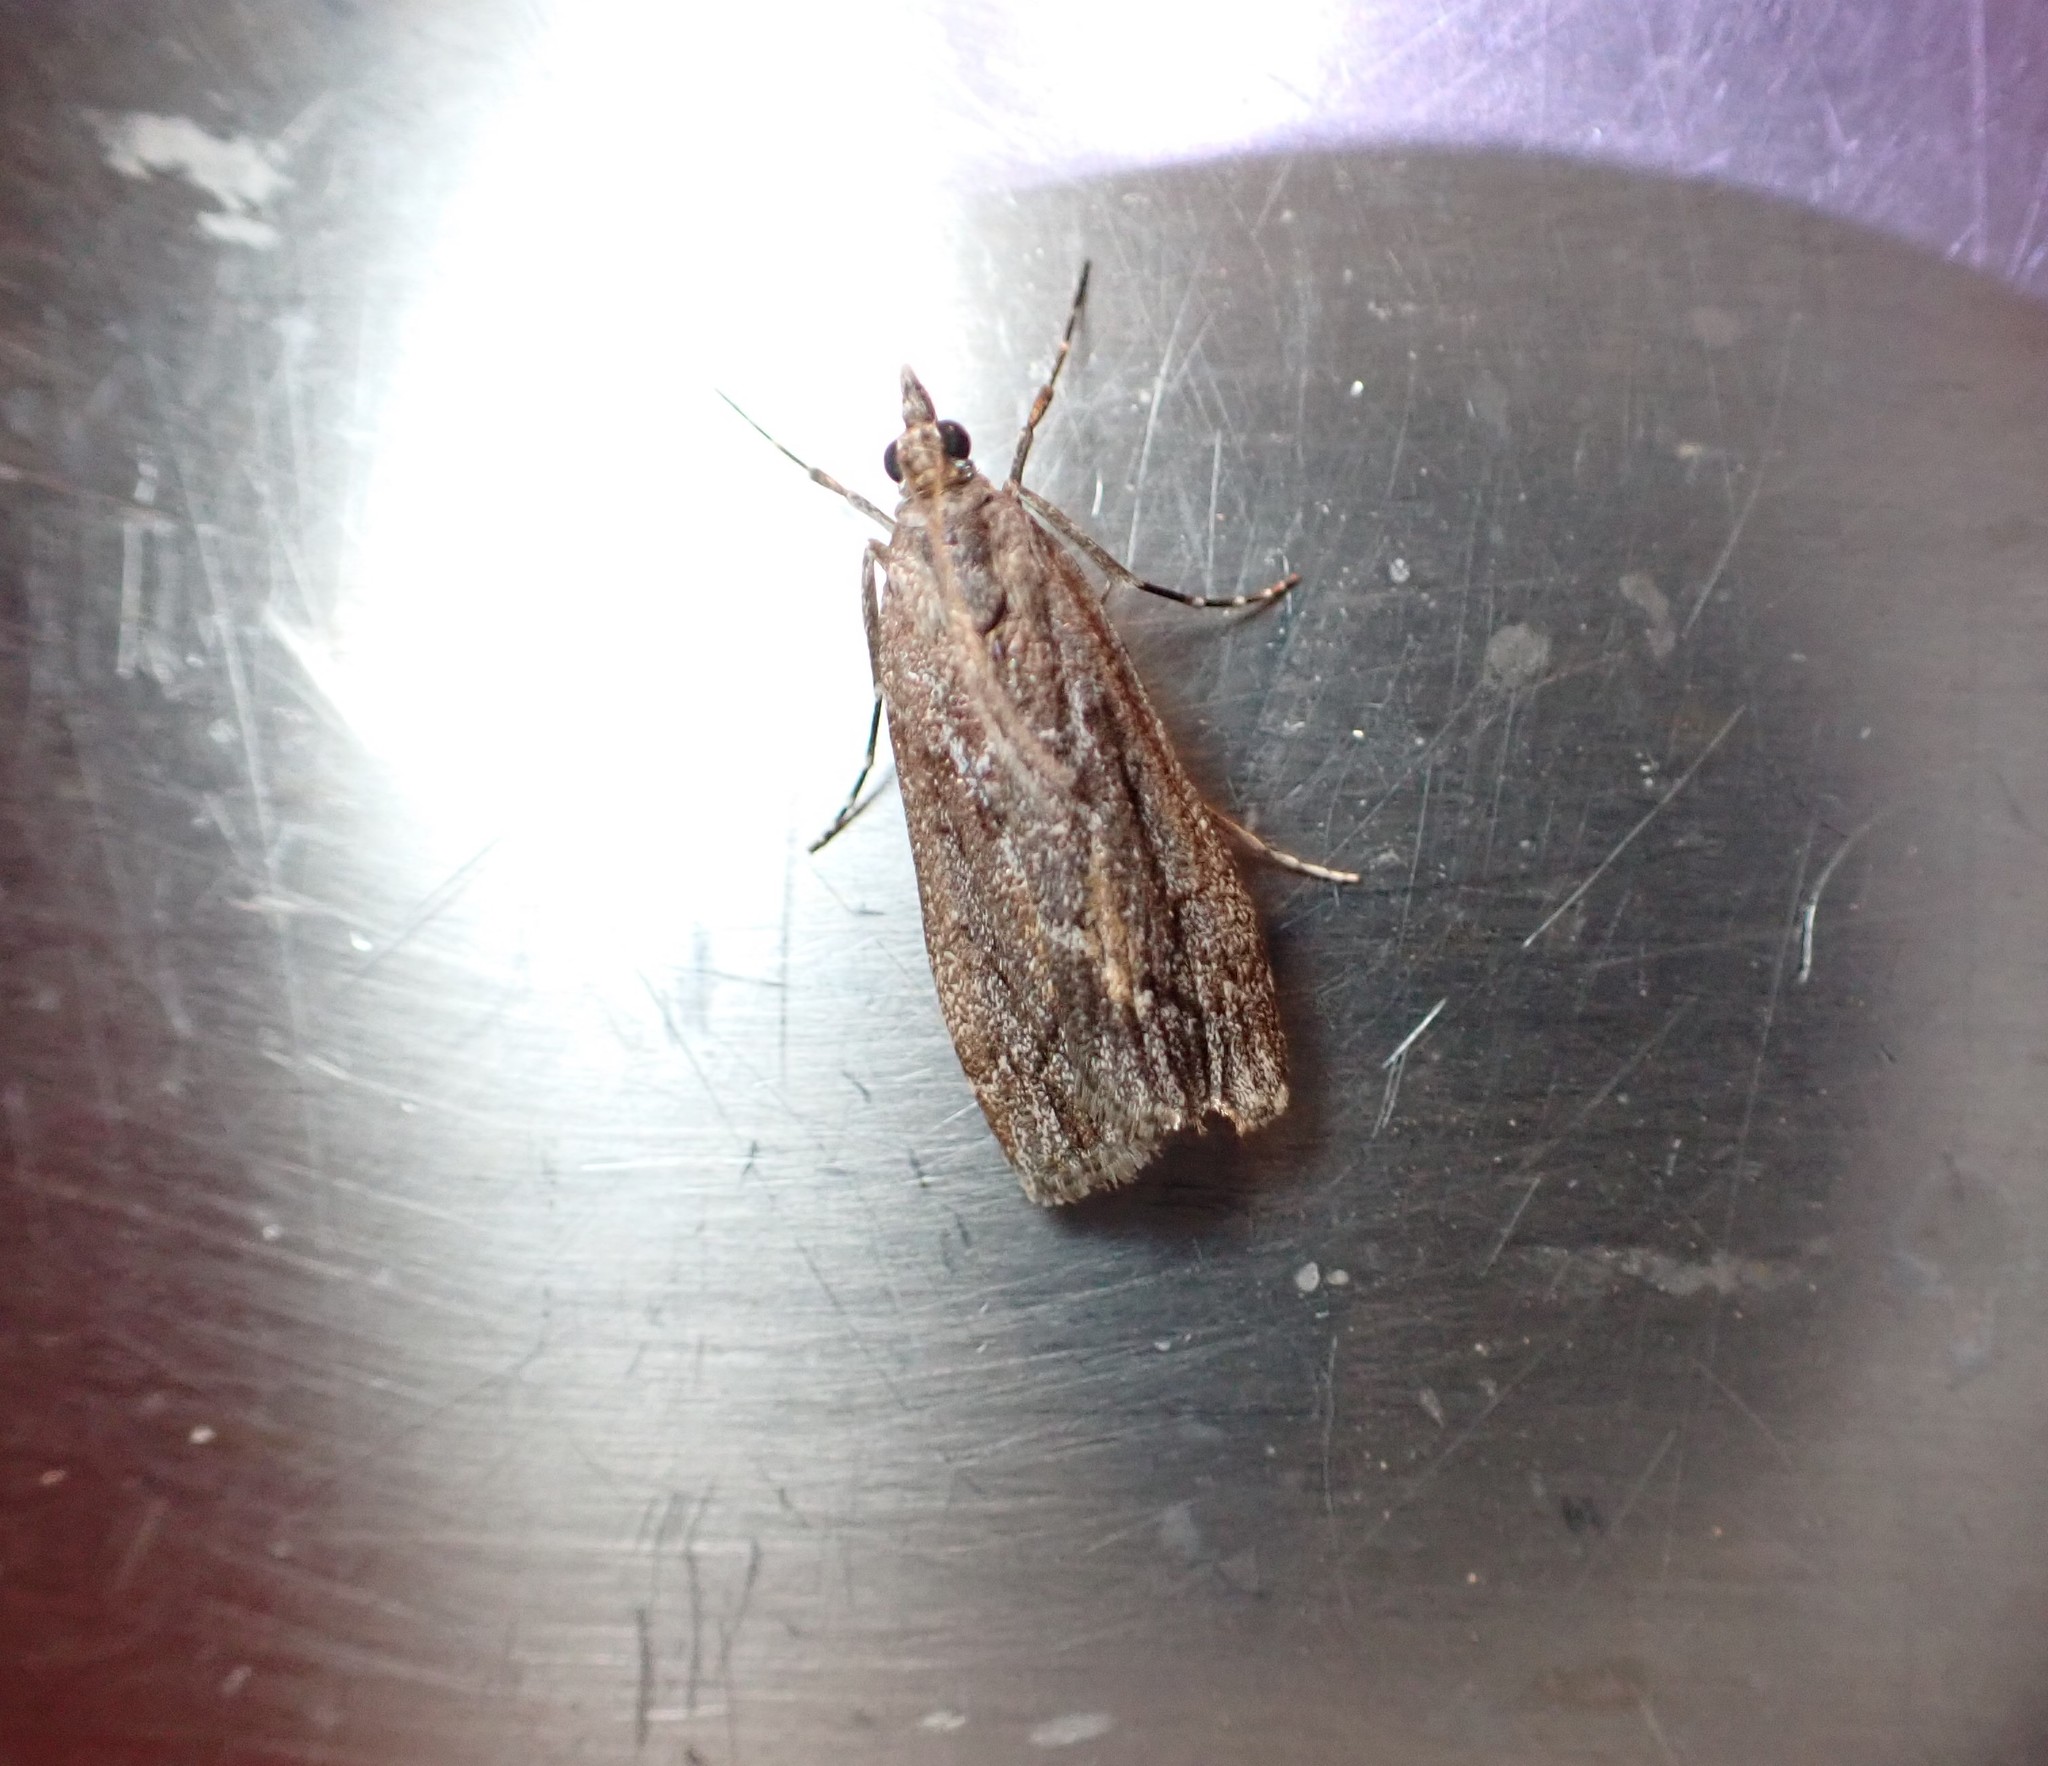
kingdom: Animalia
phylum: Arthropoda
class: Insecta
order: Lepidoptera
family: Crambidae
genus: Eudonia
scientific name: Eudonia submarginalis
